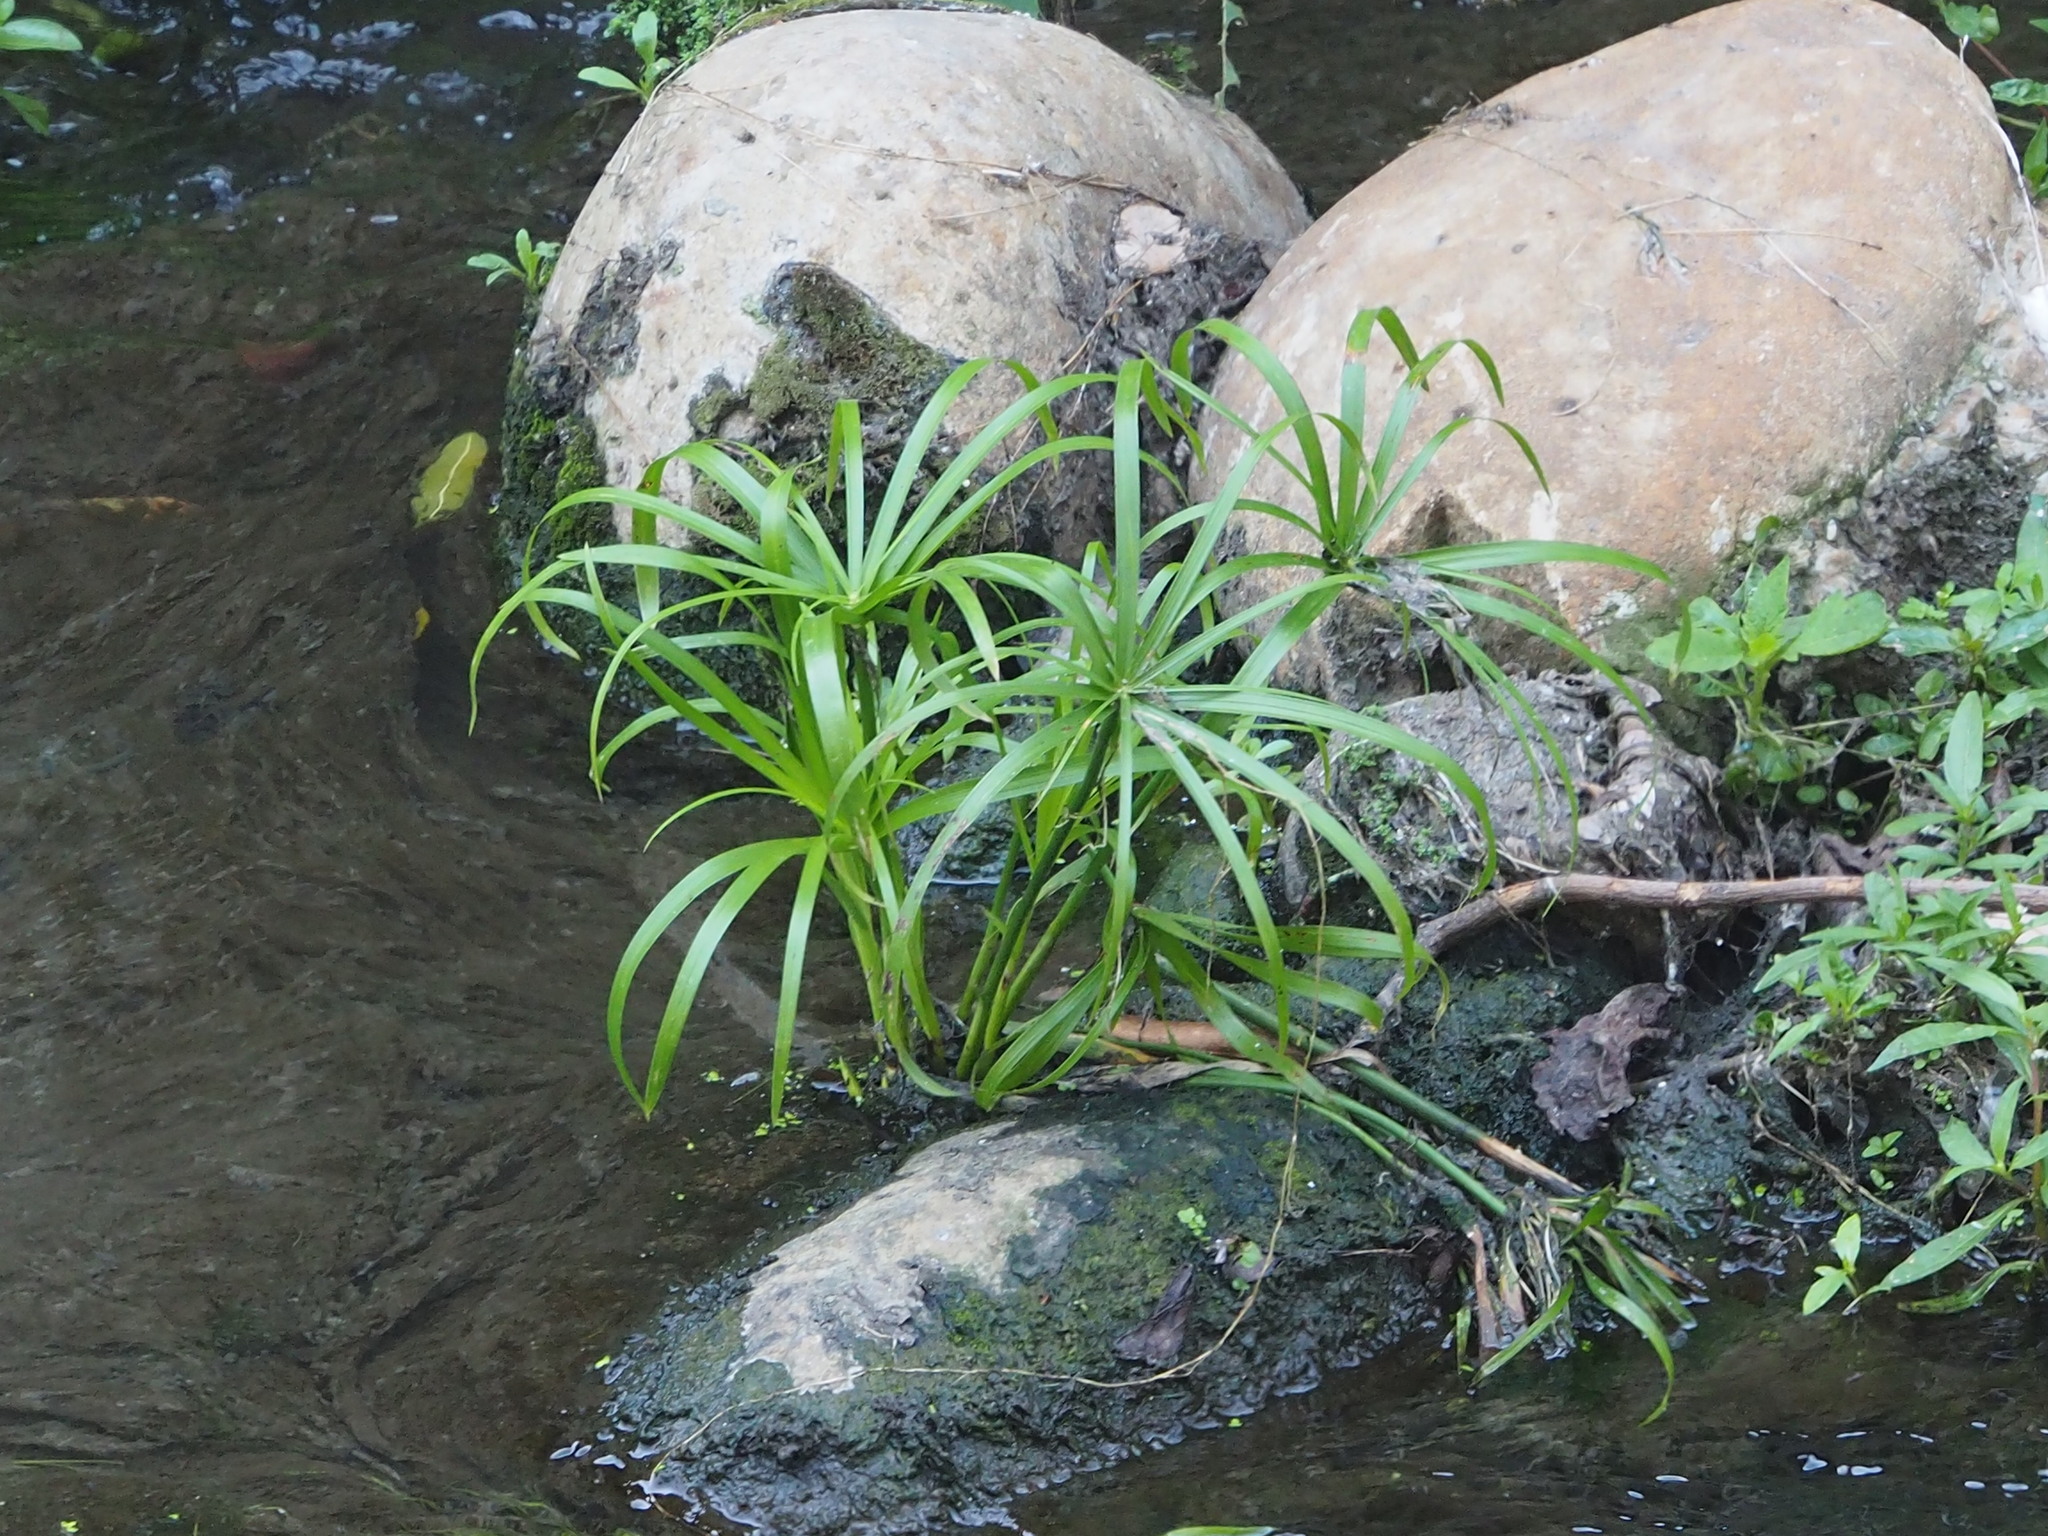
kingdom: Plantae
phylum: Tracheophyta
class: Liliopsida
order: Poales
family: Cyperaceae
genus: Cyperus
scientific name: Cyperus alternifolius
